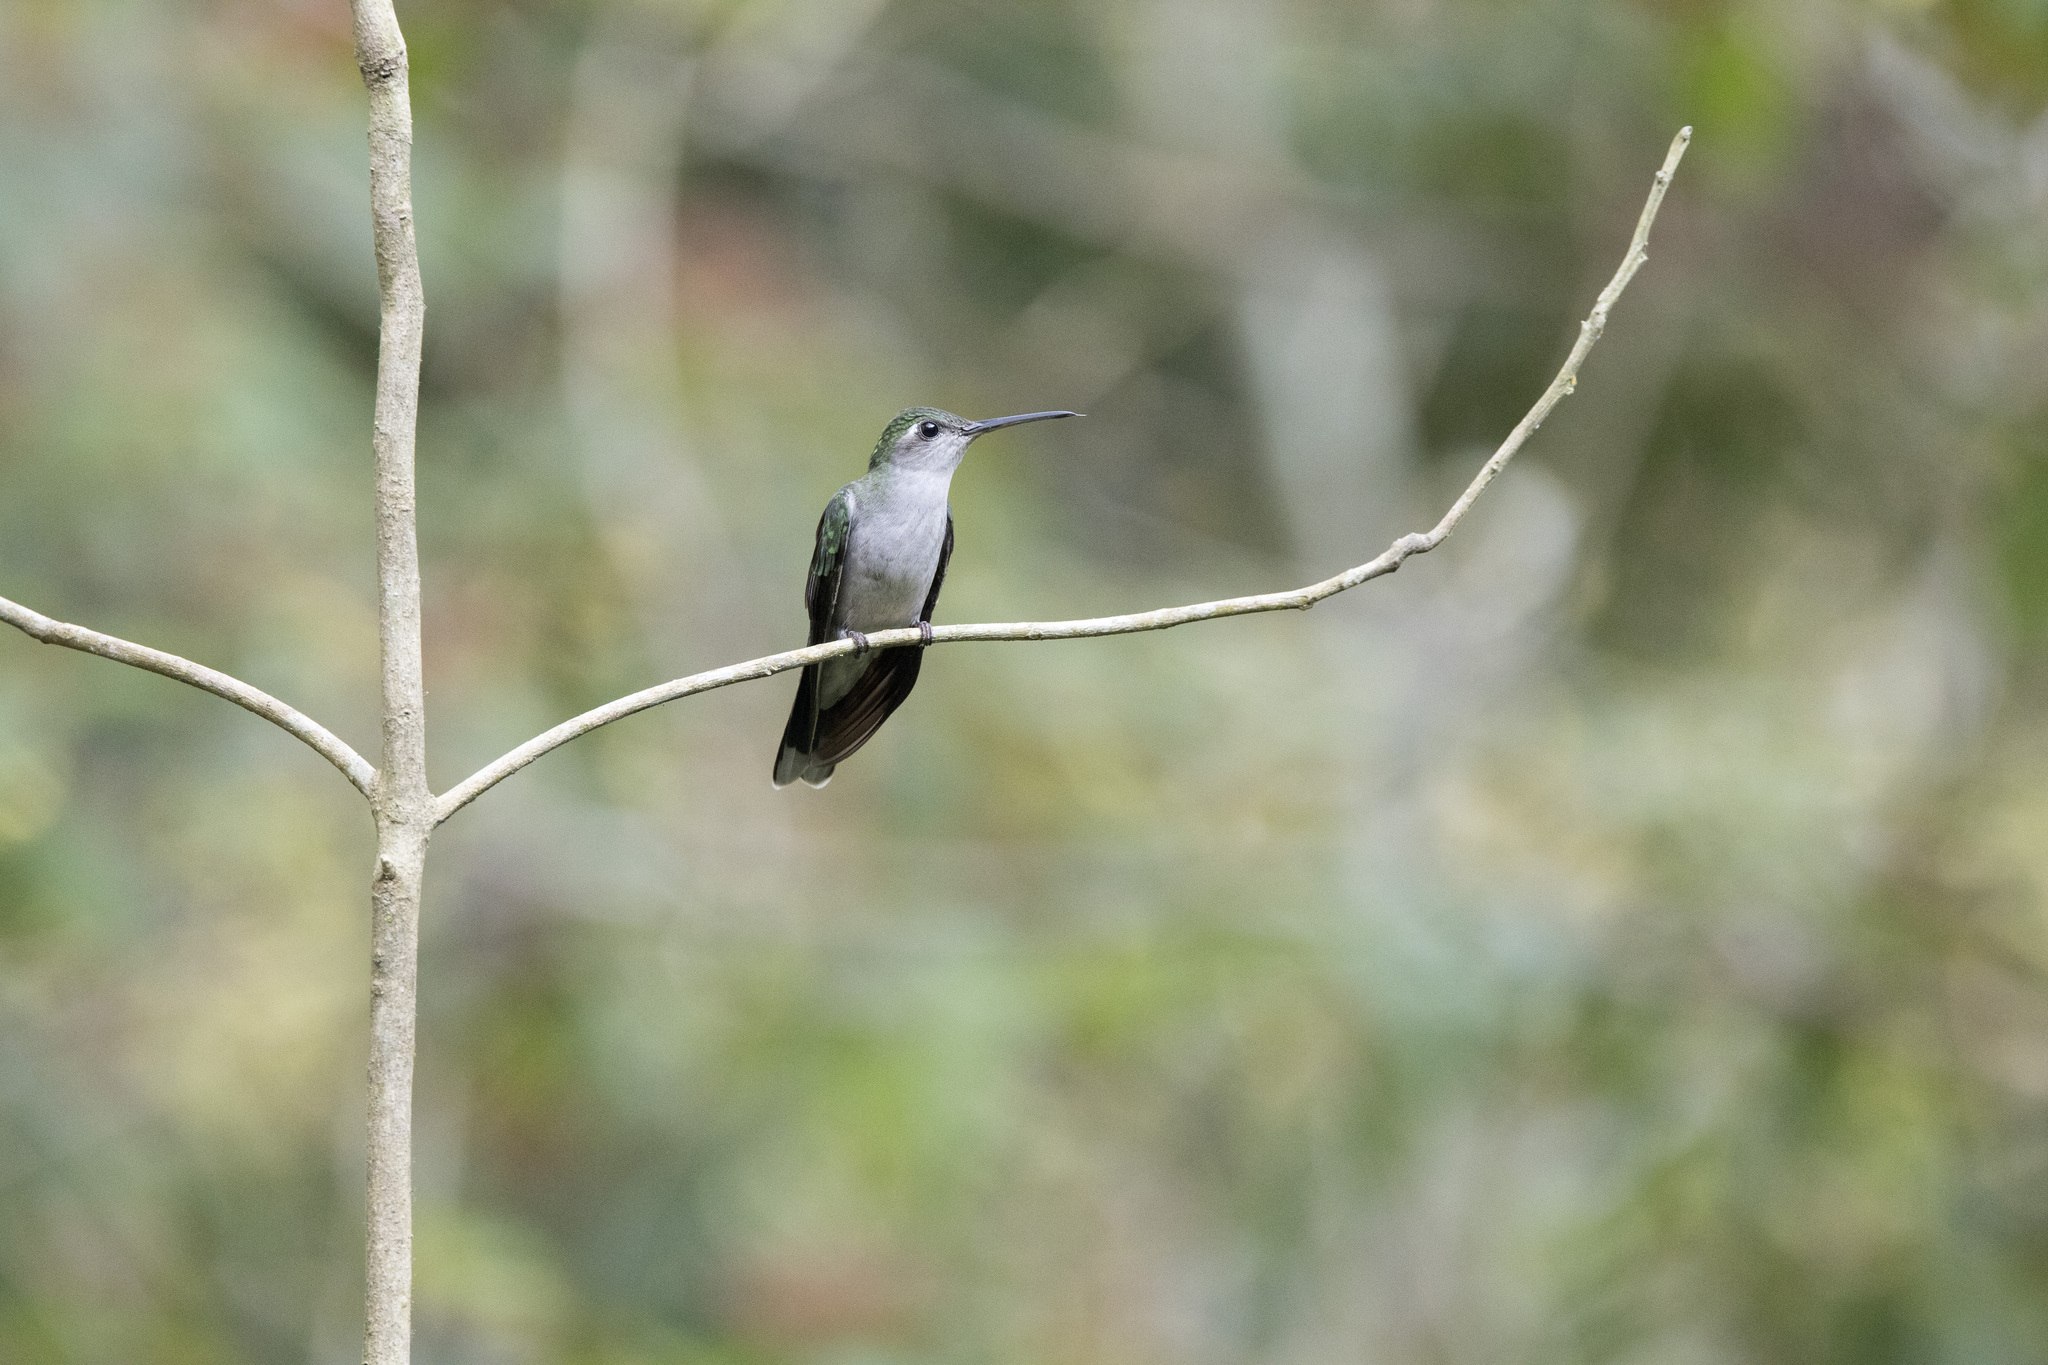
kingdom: Animalia
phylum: Chordata
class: Aves
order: Apodiformes
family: Trochilidae
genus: Campylopterus
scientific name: Campylopterus largipennis
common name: Gray-breasted sabrewing
